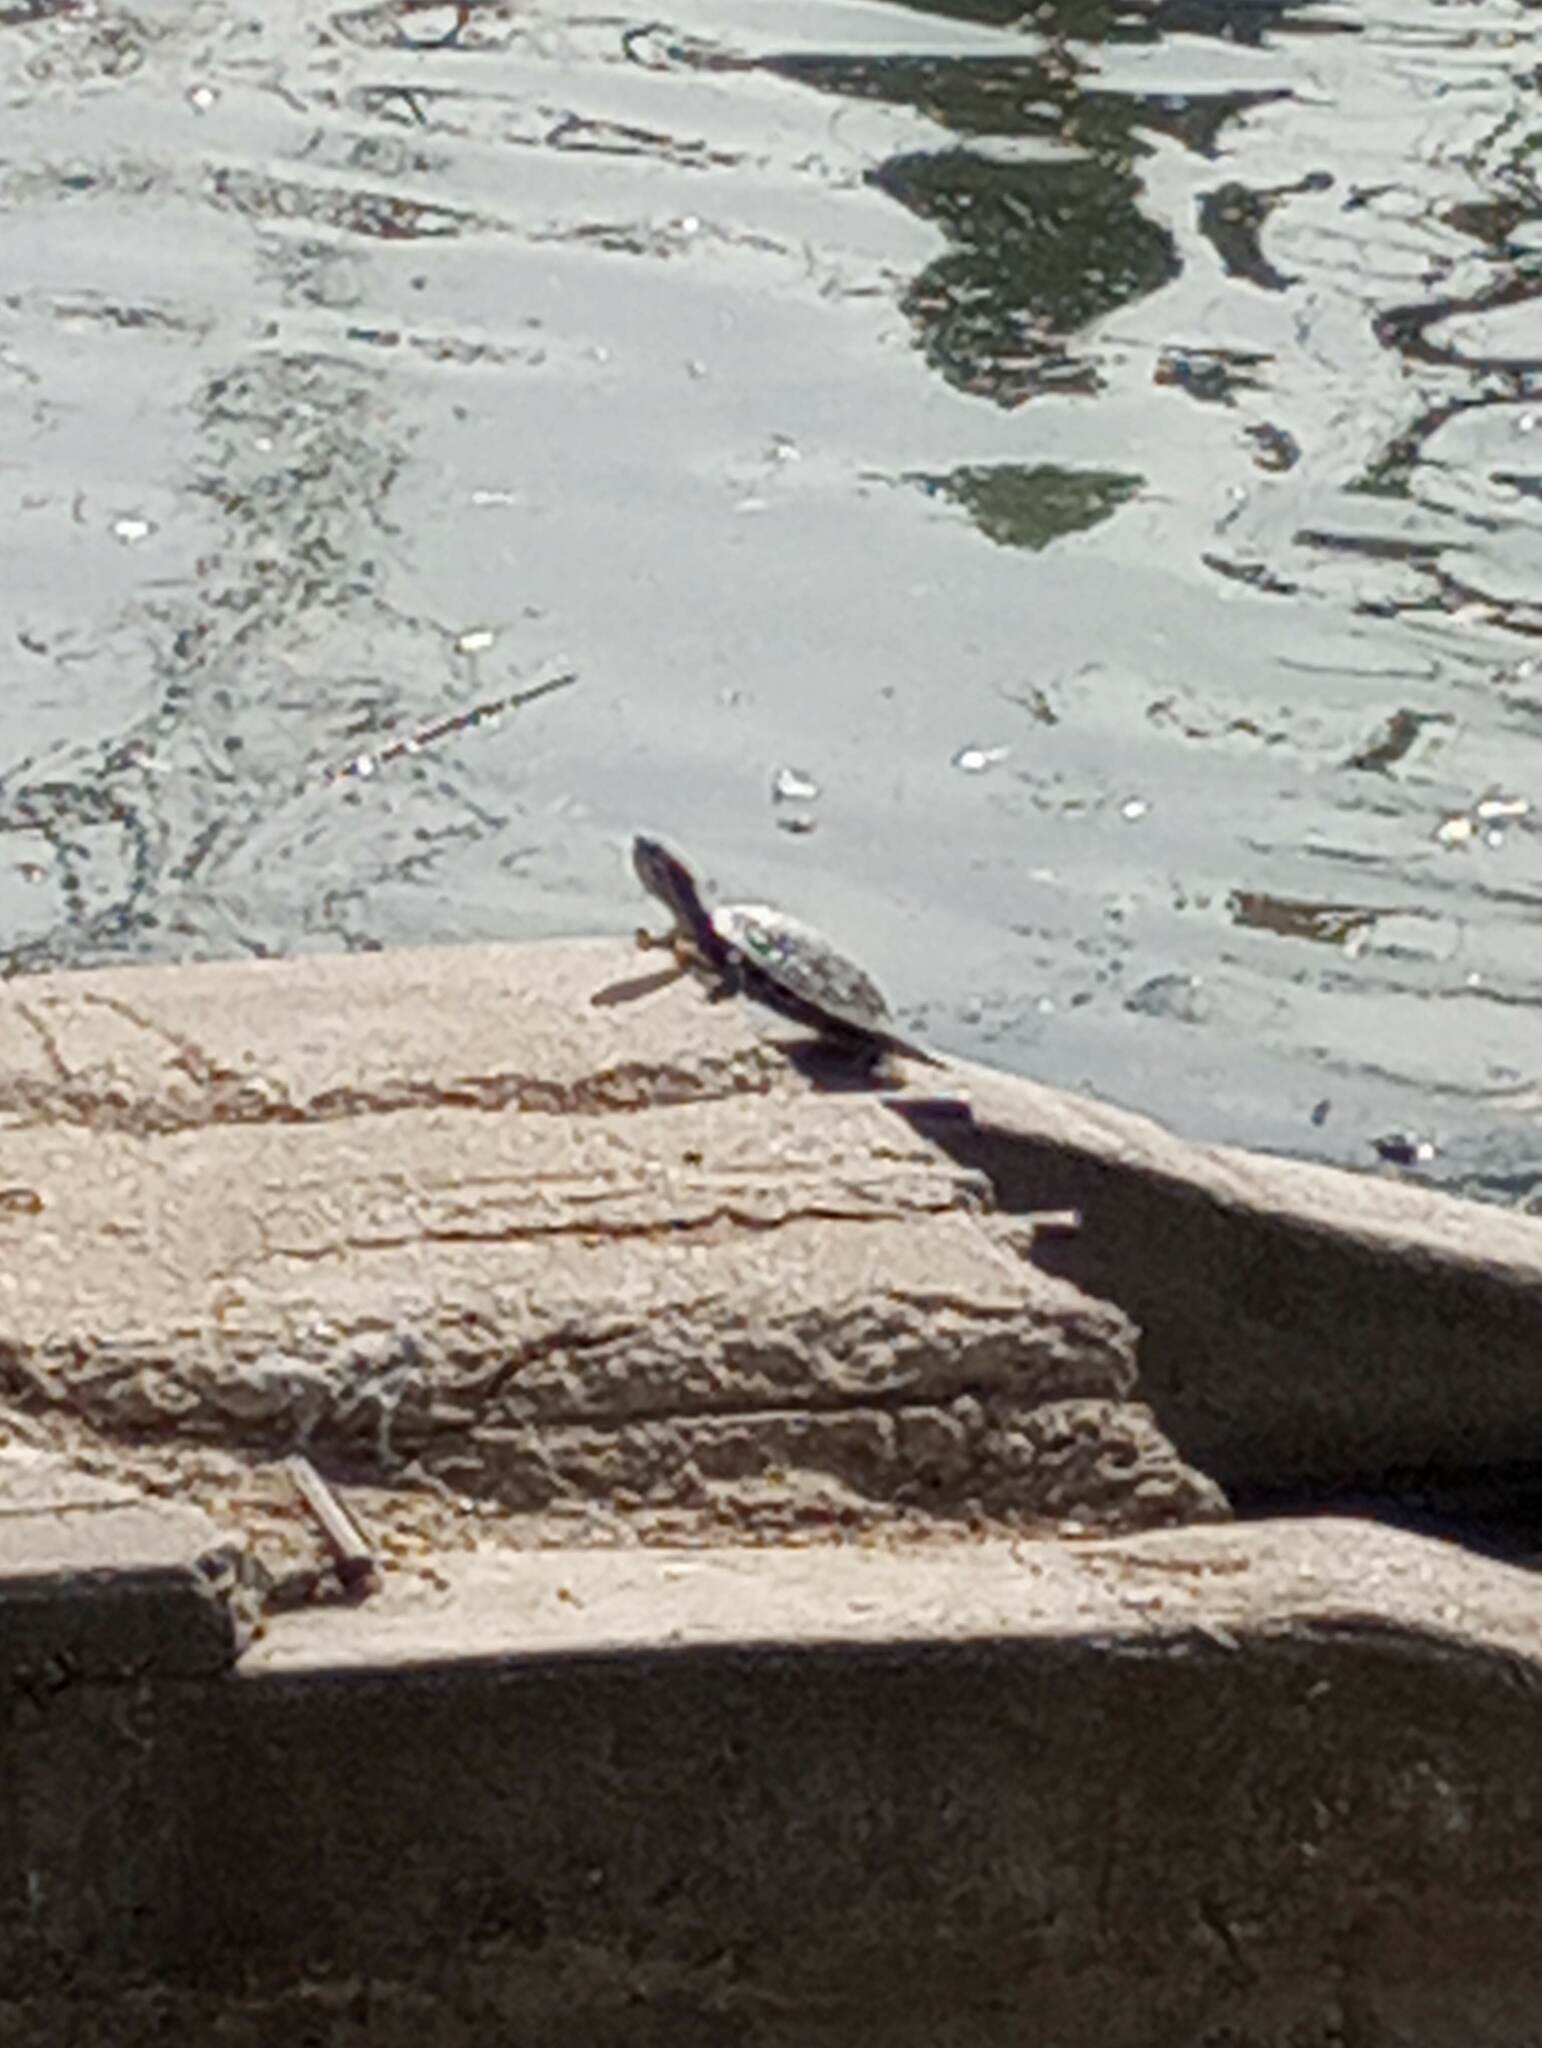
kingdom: Animalia
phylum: Chordata
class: Testudines
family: Emydidae
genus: Trachemys
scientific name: Trachemys scripta
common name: Slider
